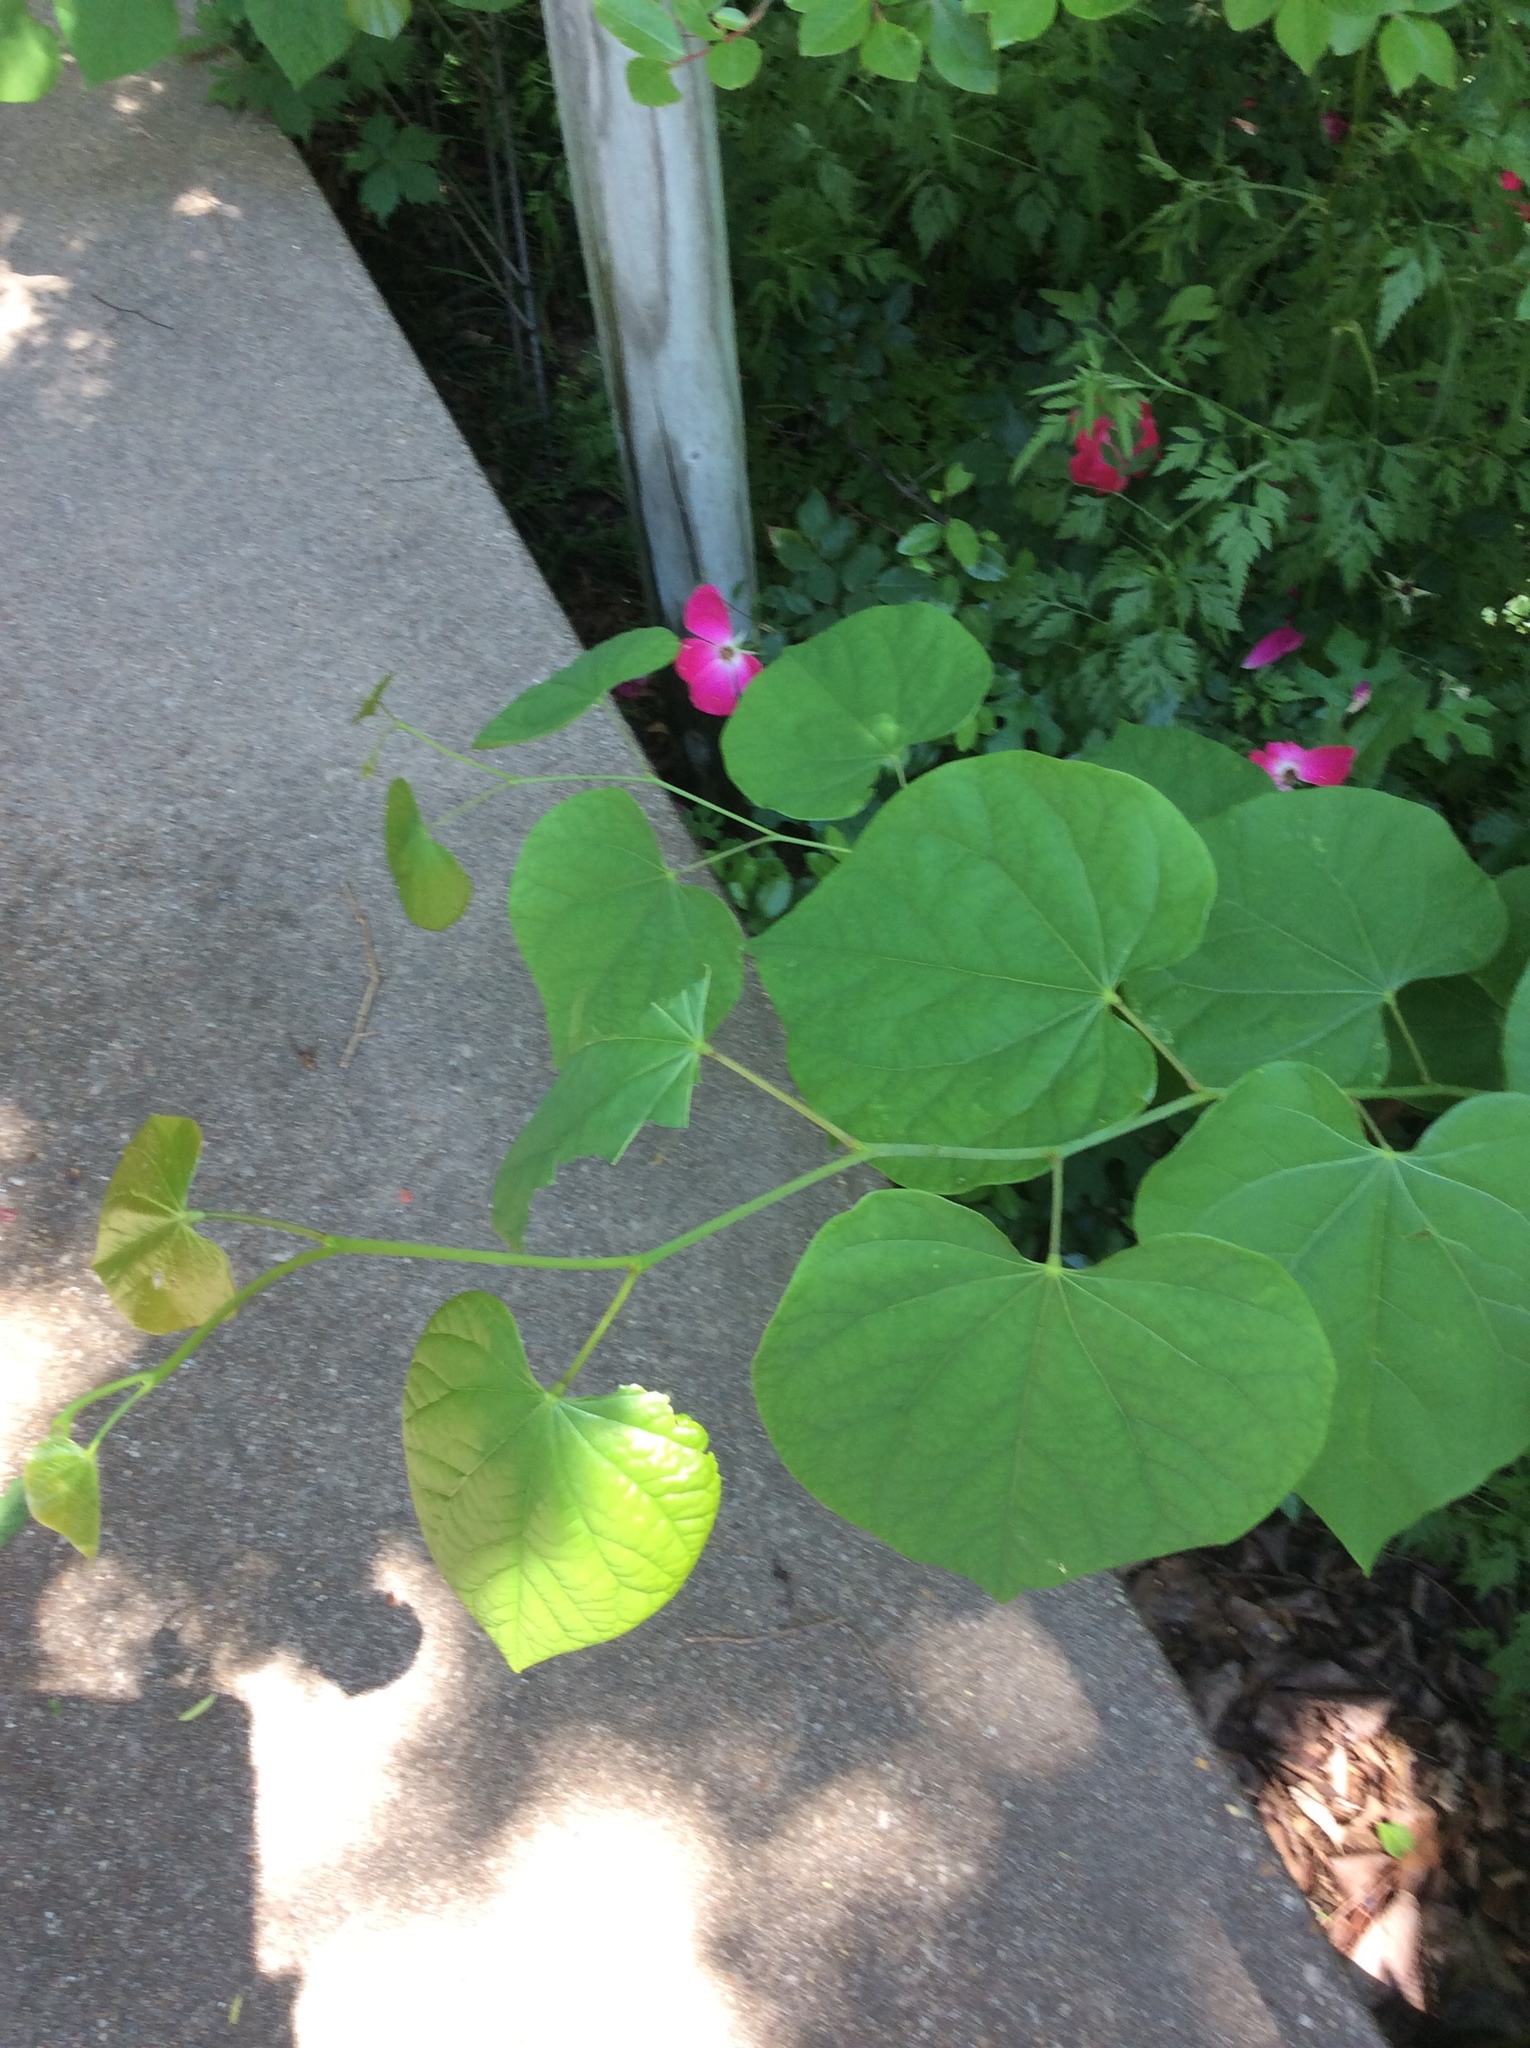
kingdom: Plantae
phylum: Tracheophyta
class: Magnoliopsida
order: Fabales
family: Fabaceae
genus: Cercis
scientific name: Cercis canadensis
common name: Eastern redbud
